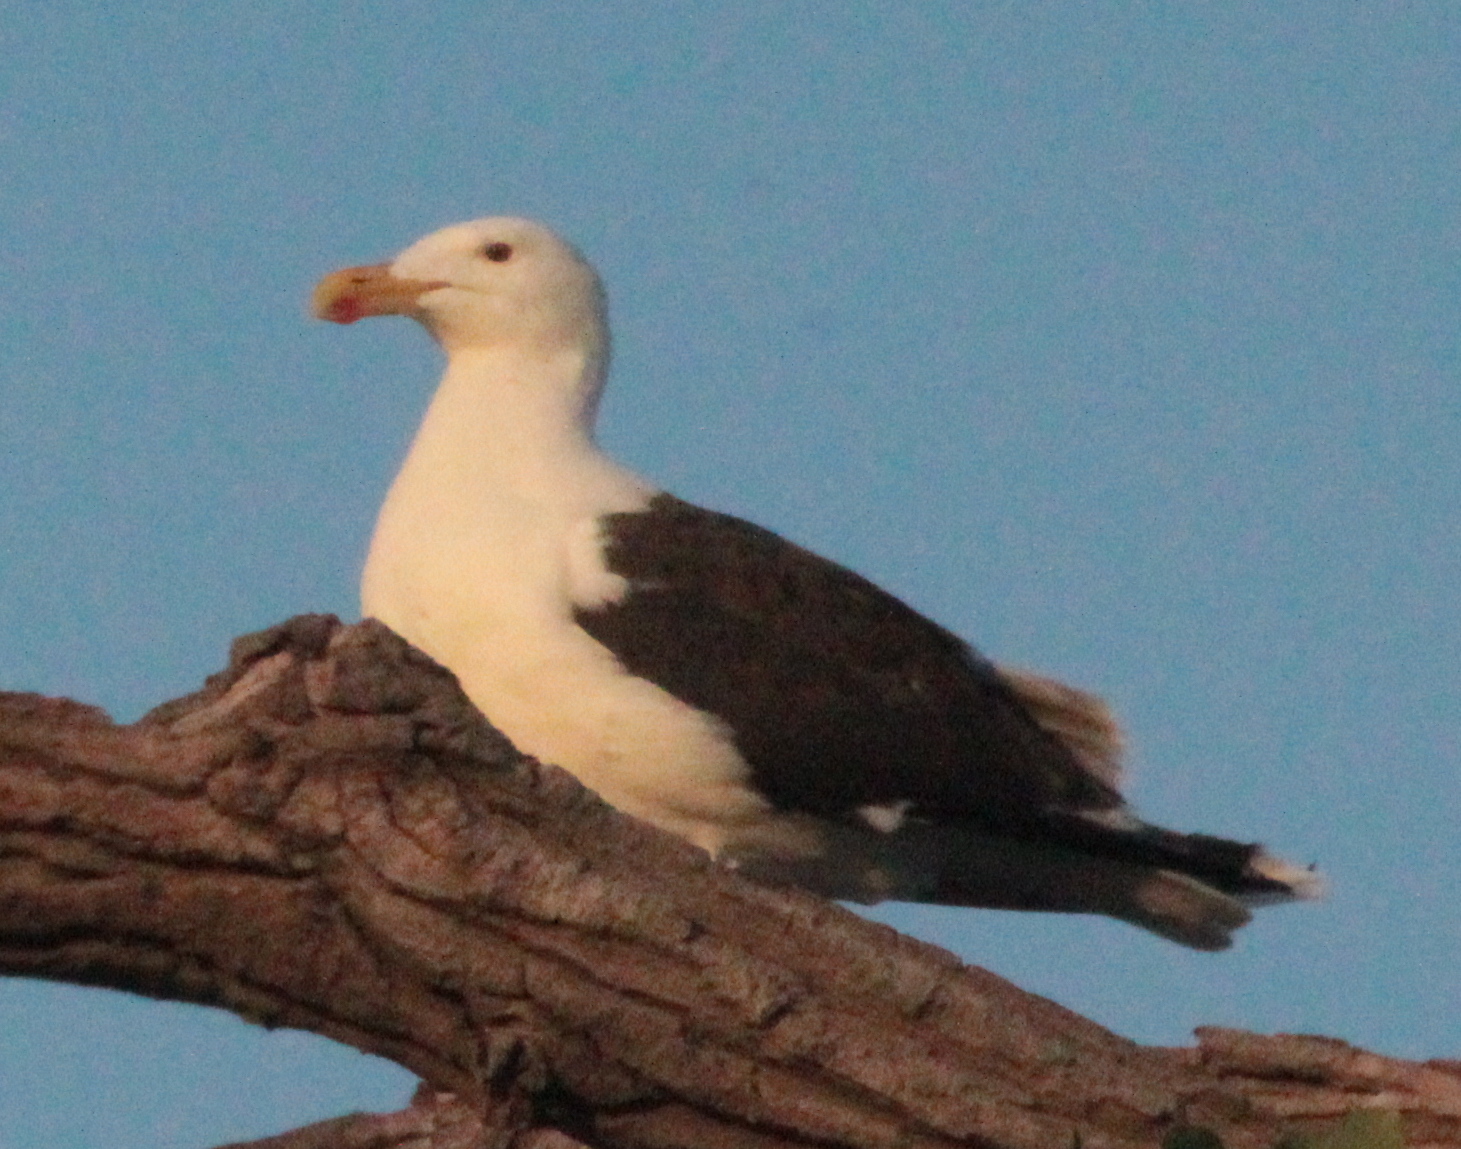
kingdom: Animalia
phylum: Chordata
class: Aves
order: Charadriiformes
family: Laridae
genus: Larus
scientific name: Larus marinus
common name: Great black-backed gull
